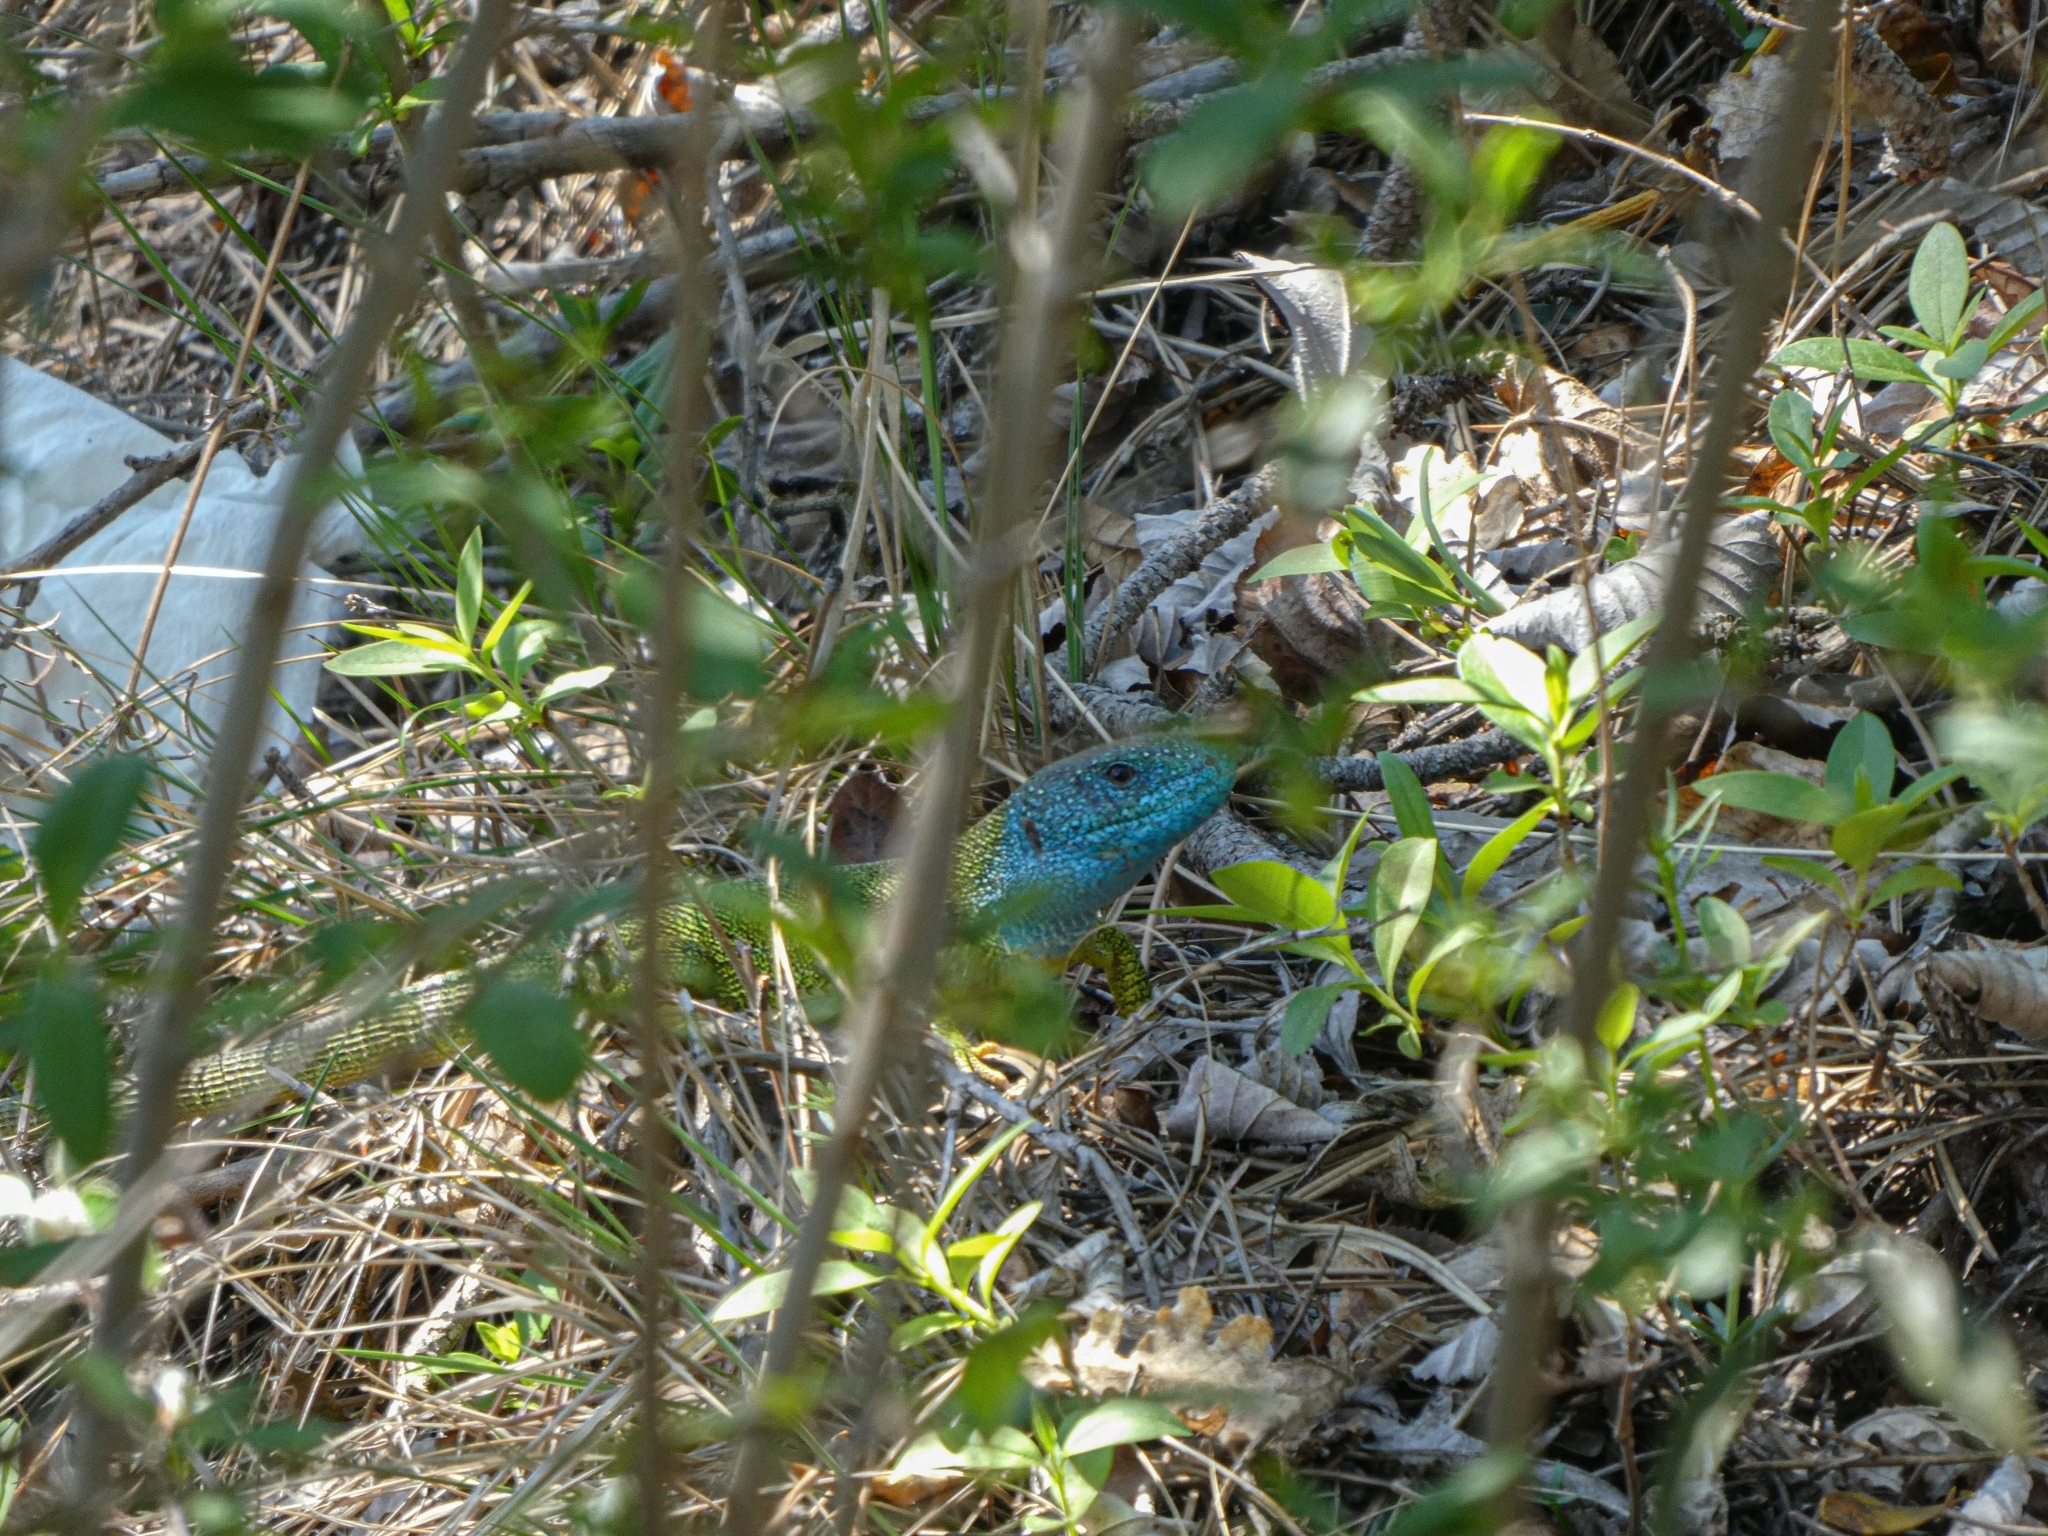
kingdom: Animalia
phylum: Chordata
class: Squamata
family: Lacertidae
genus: Lacerta
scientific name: Lacerta viridis
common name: European green lizard
